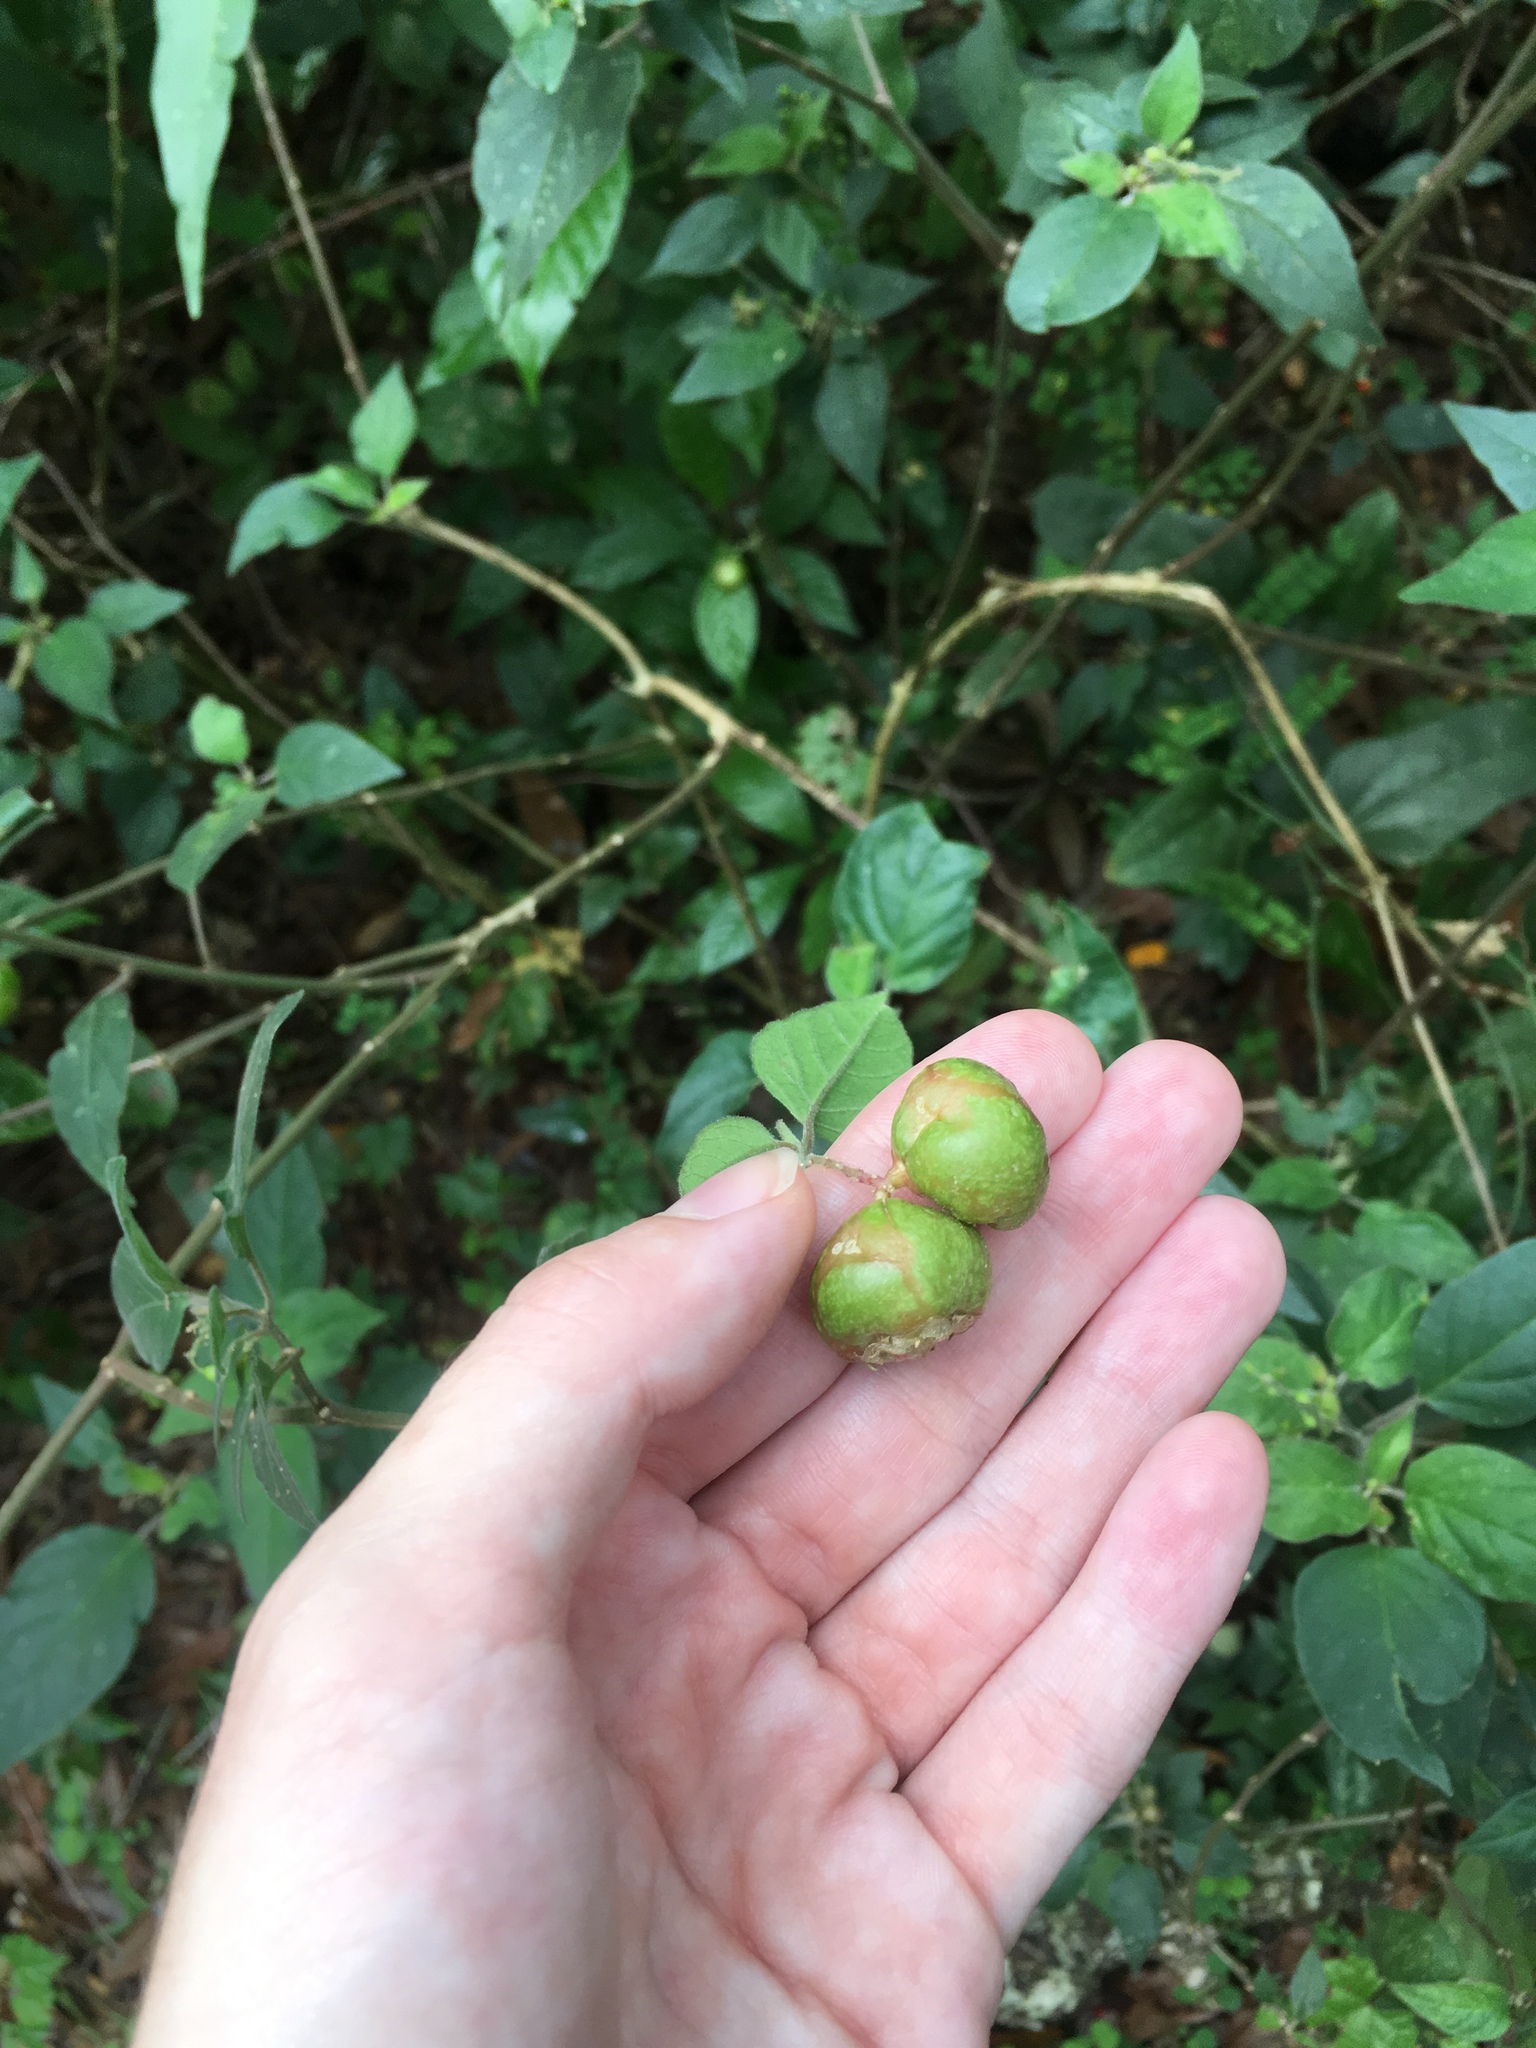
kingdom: Animalia
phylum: Arthropoda
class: Insecta
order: Diptera
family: Cecidomyiidae
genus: Schizomyia
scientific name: Schizomyia rivinae
